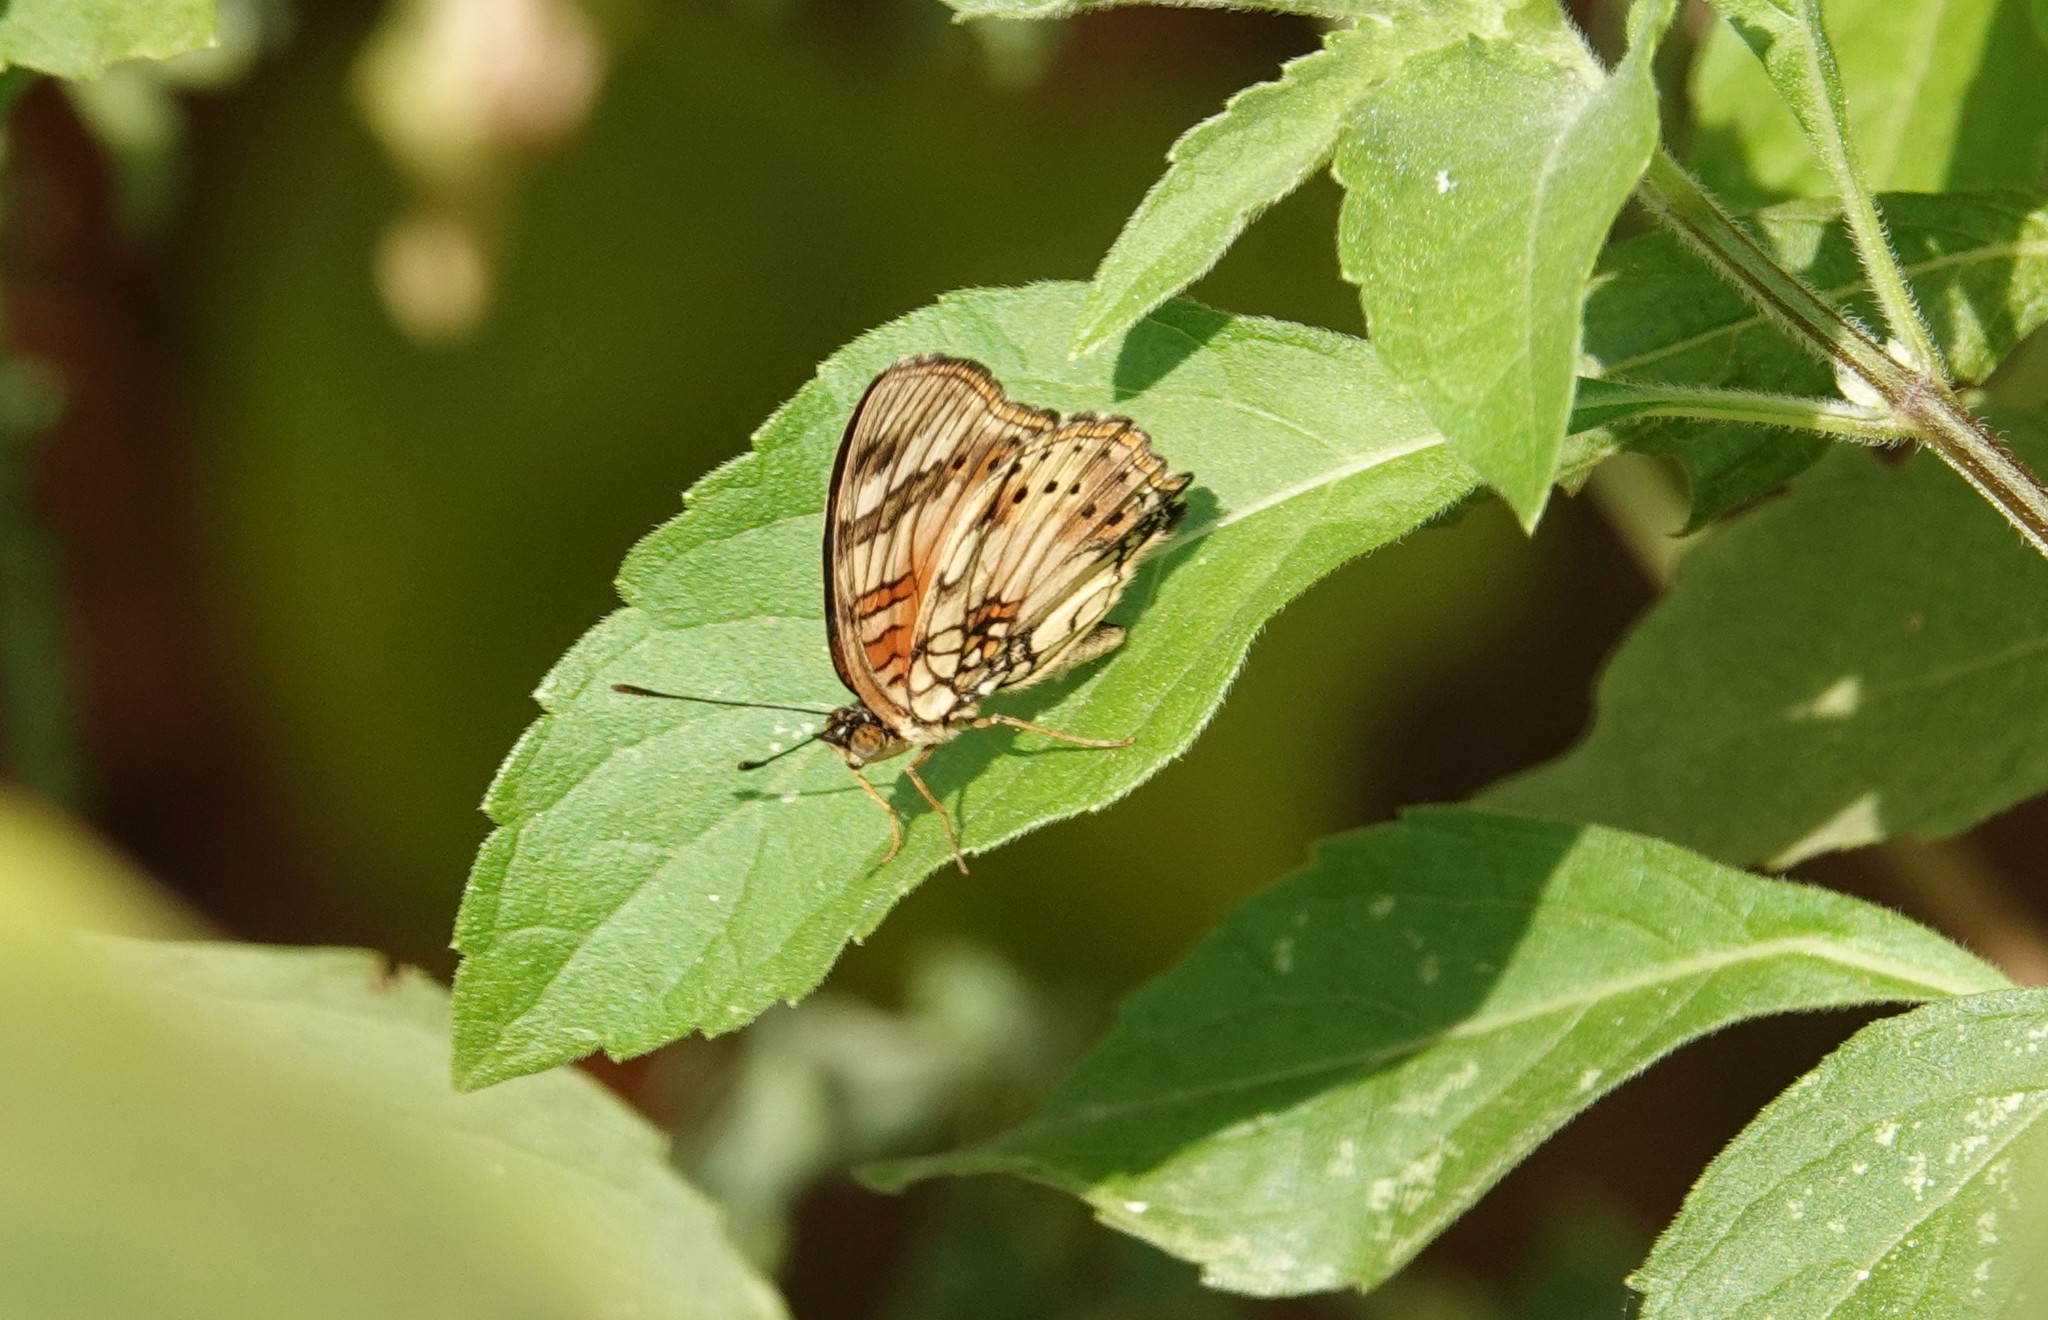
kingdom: Animalia
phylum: Arthropoda
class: Insecta
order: Lepidoptera
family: Nymphalidae
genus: Junonia
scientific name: Junonia sophia
